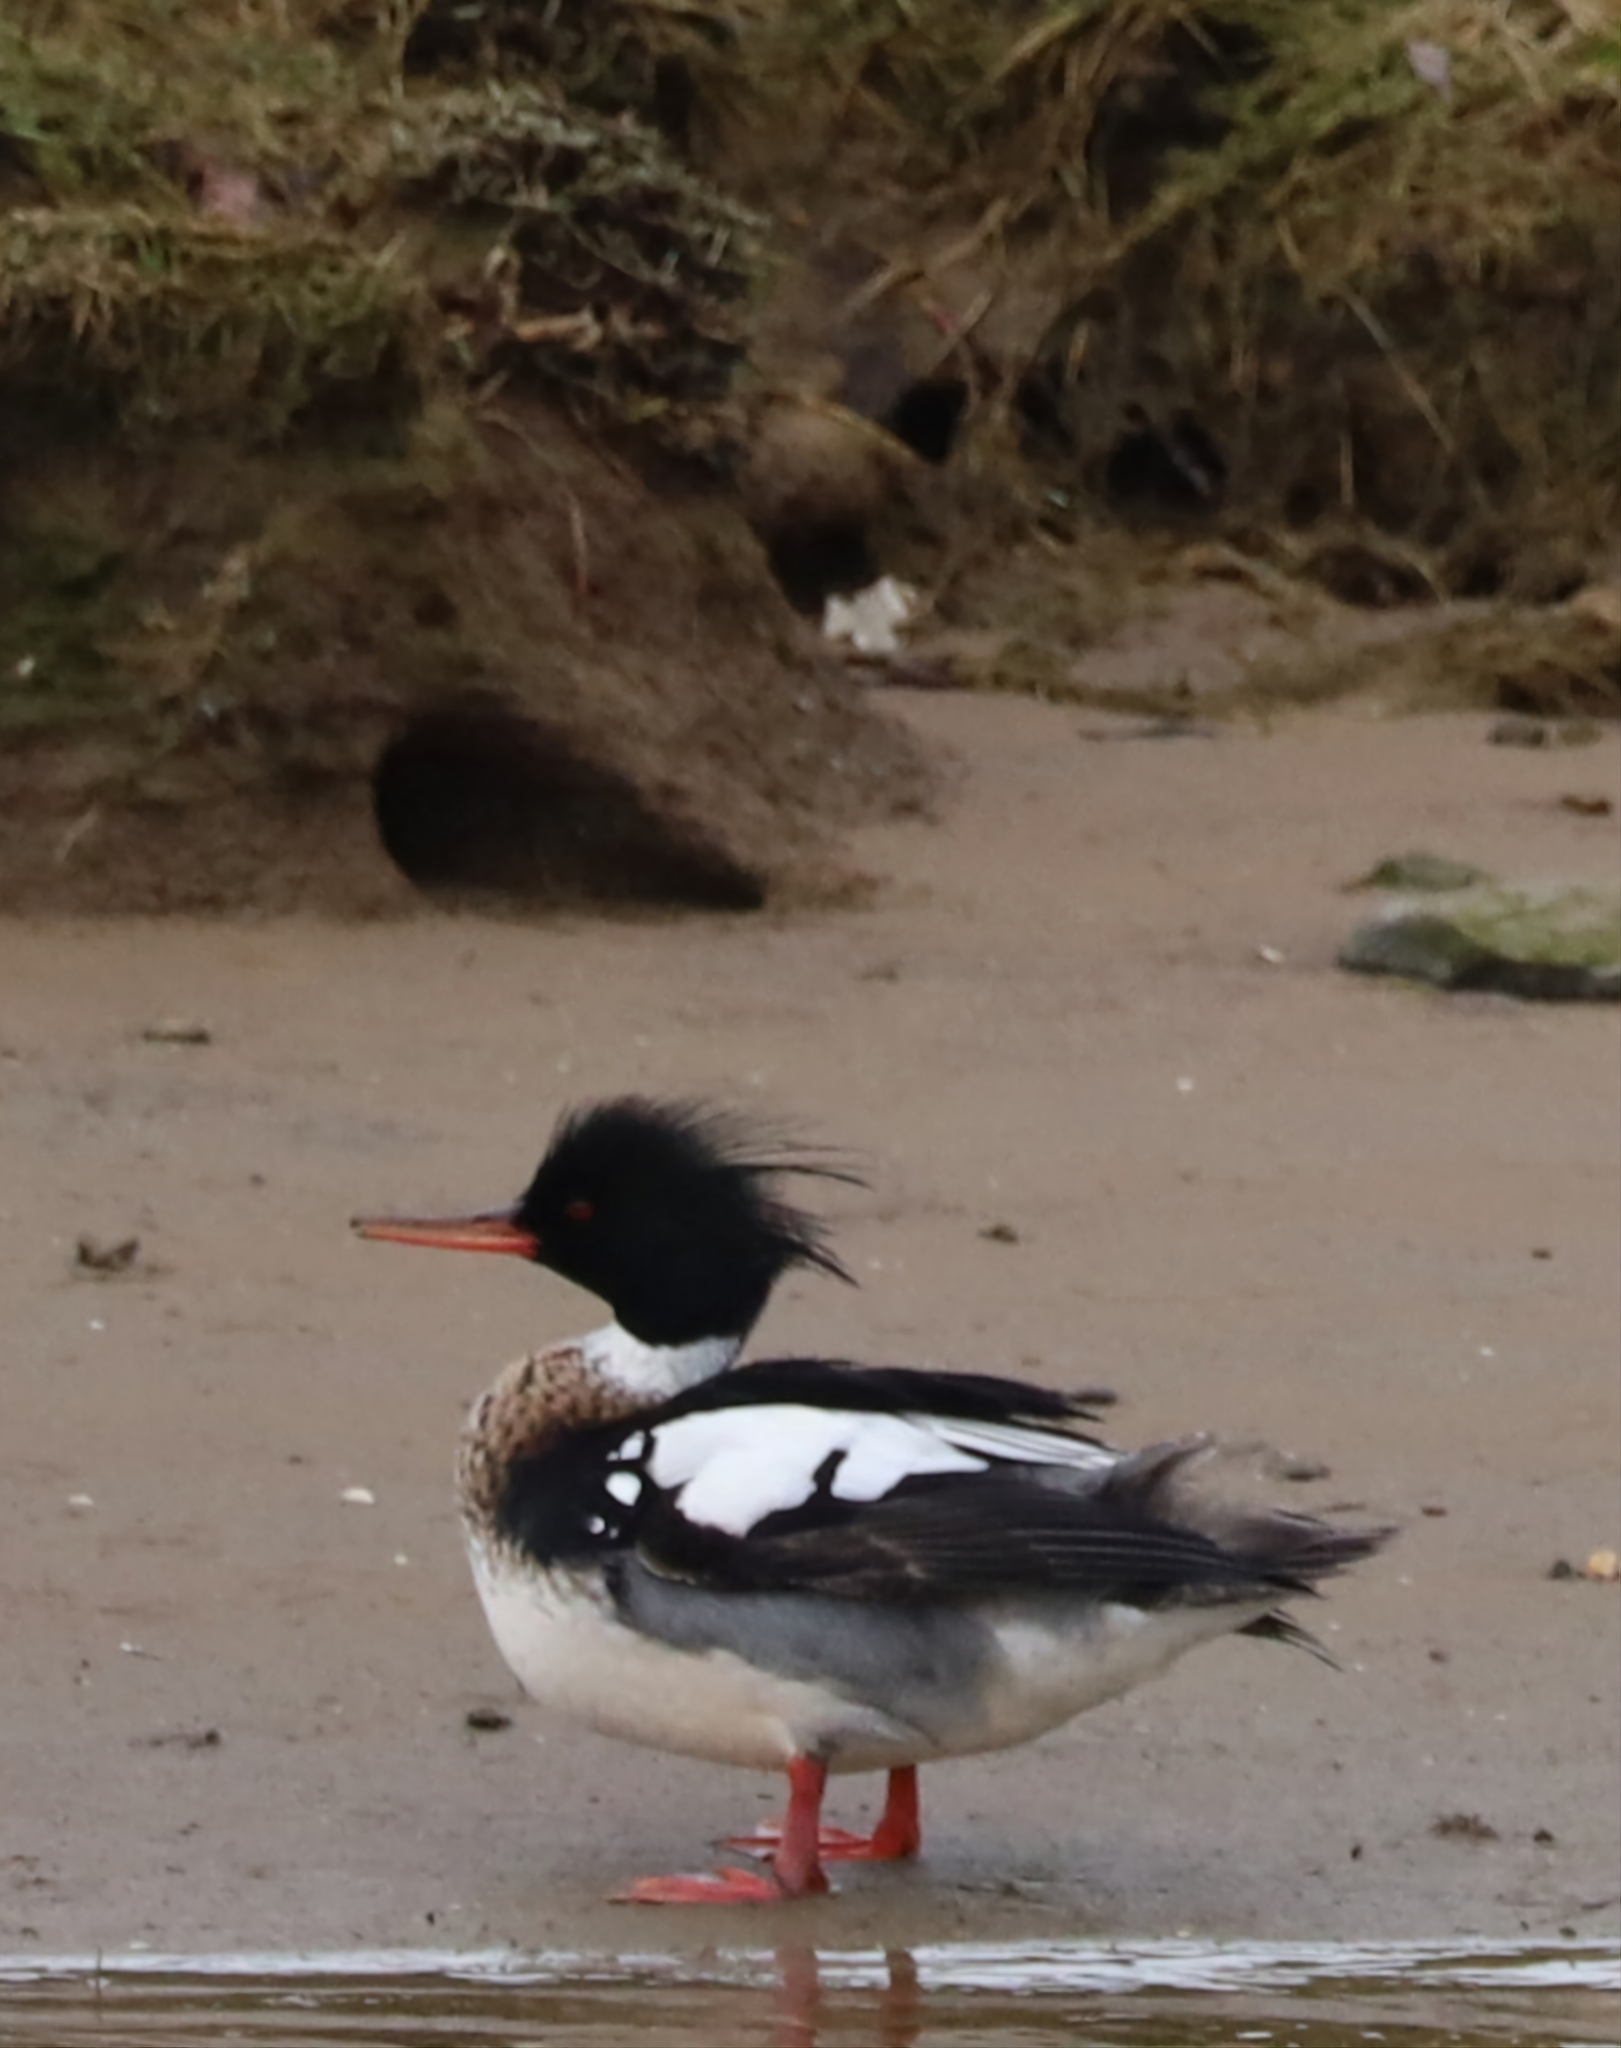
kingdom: Animalia
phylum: Chordata
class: Aves
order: Anseriformes
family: Anatidae
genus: Mergus
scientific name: Mergus serrator
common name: Red-breasted merganser
